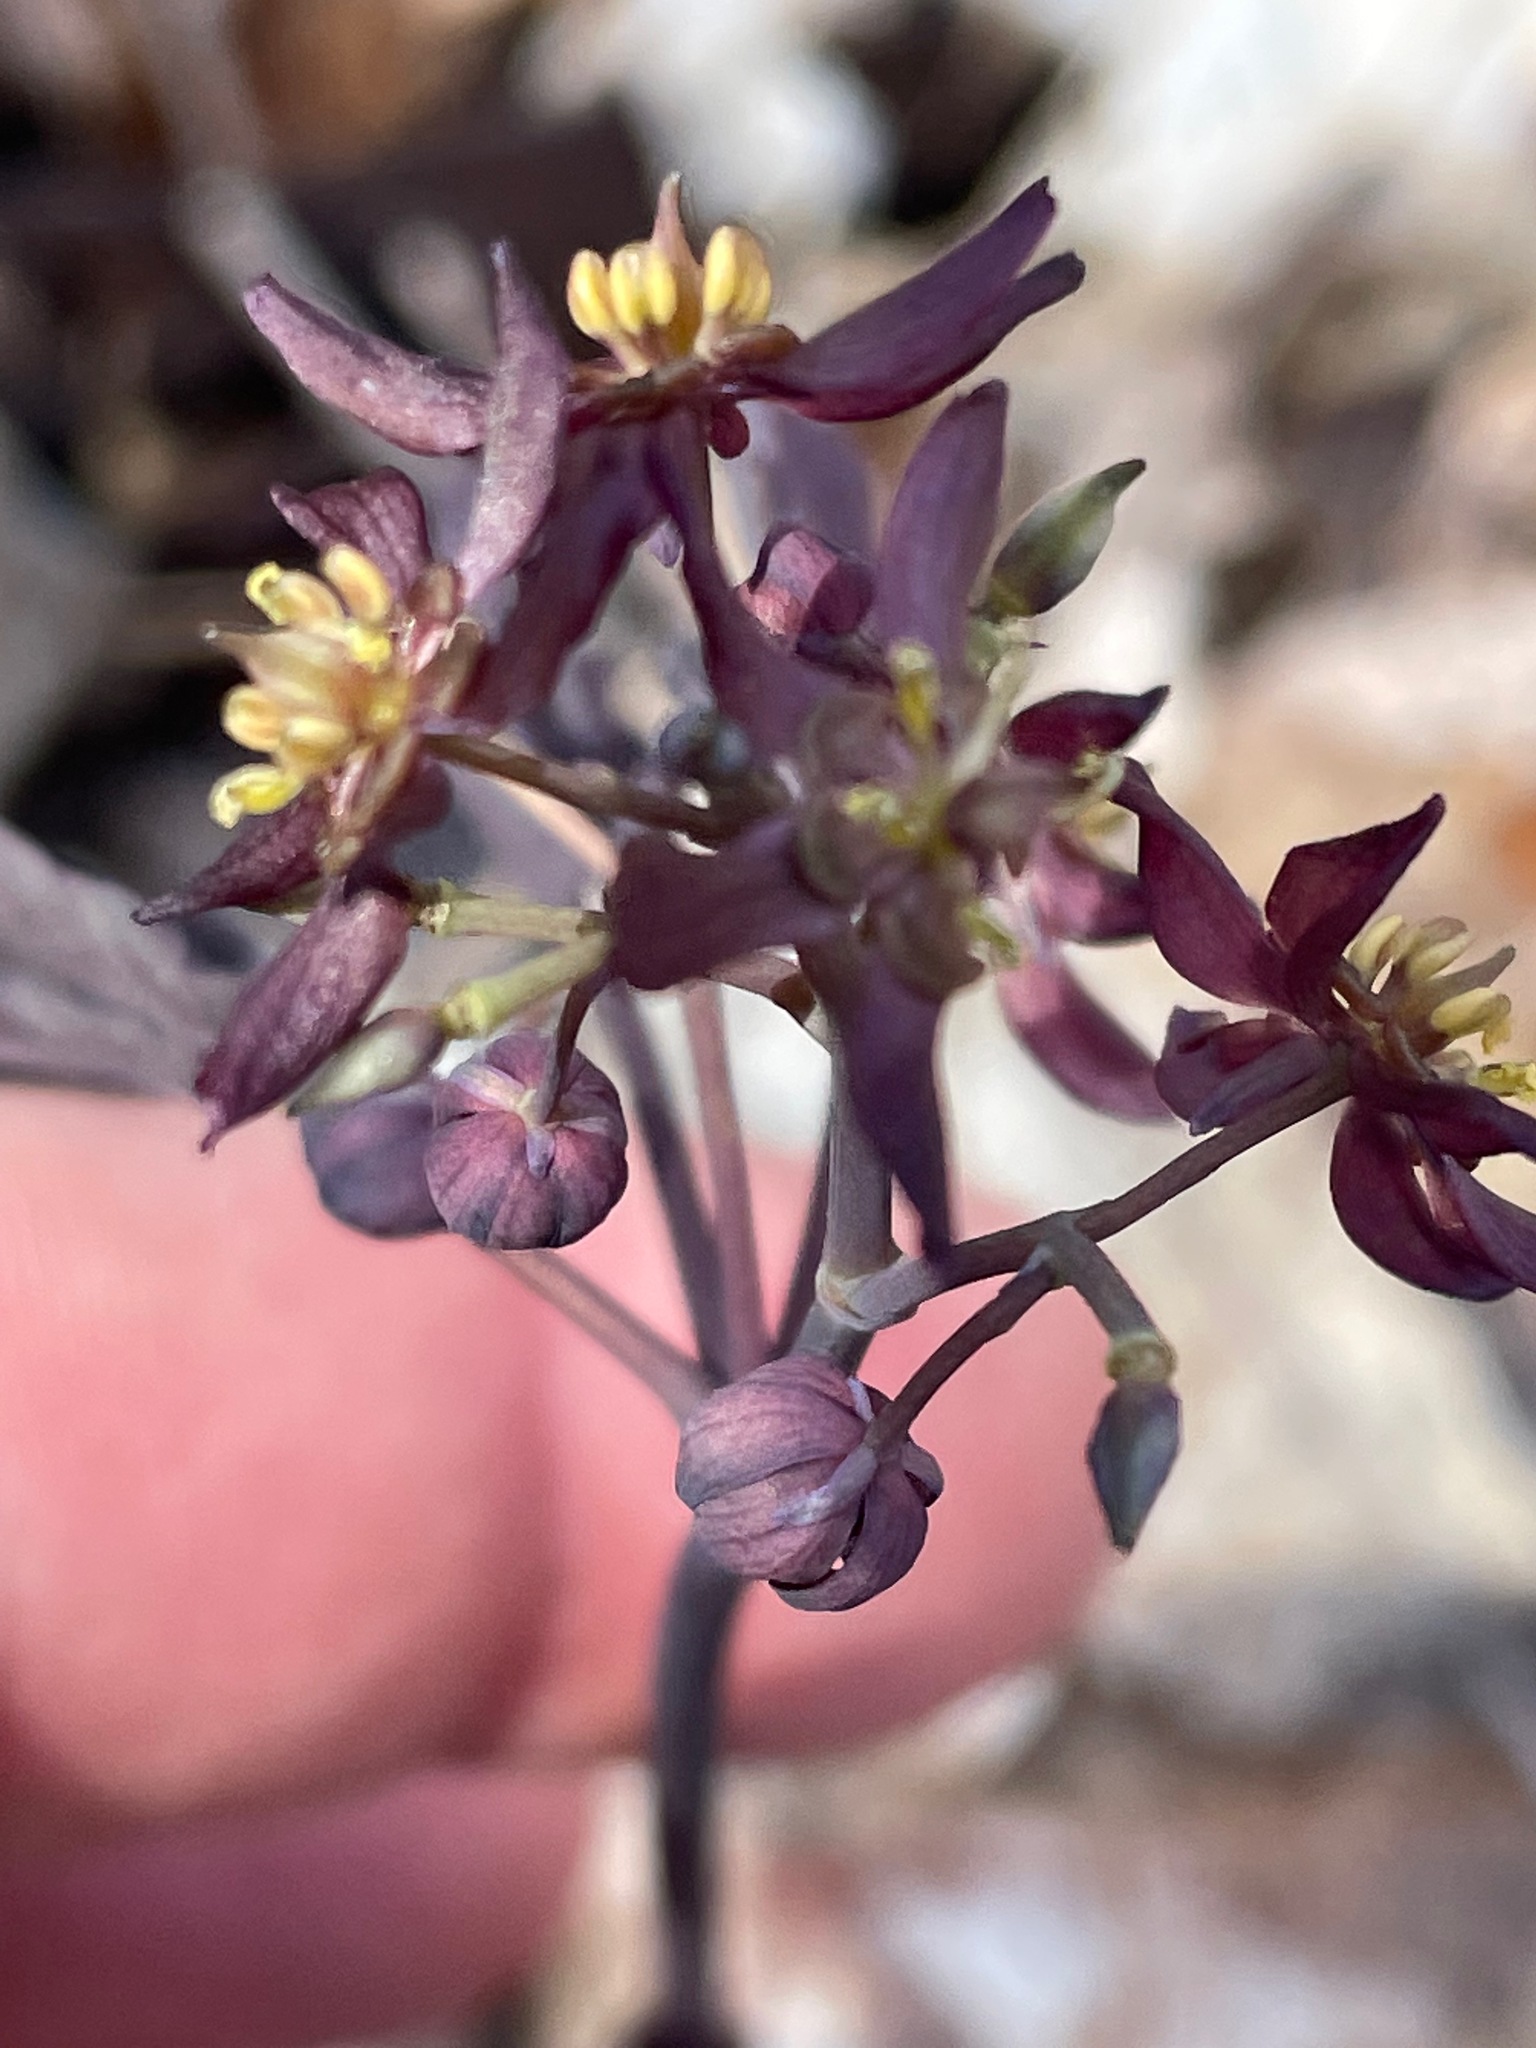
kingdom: Plantae
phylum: Tracheophyta
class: Magnoliopsida
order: Ranunculales
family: Berberidaceae
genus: Caulophyllum
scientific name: Caulophyllum giganteum
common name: Blue cohosh
